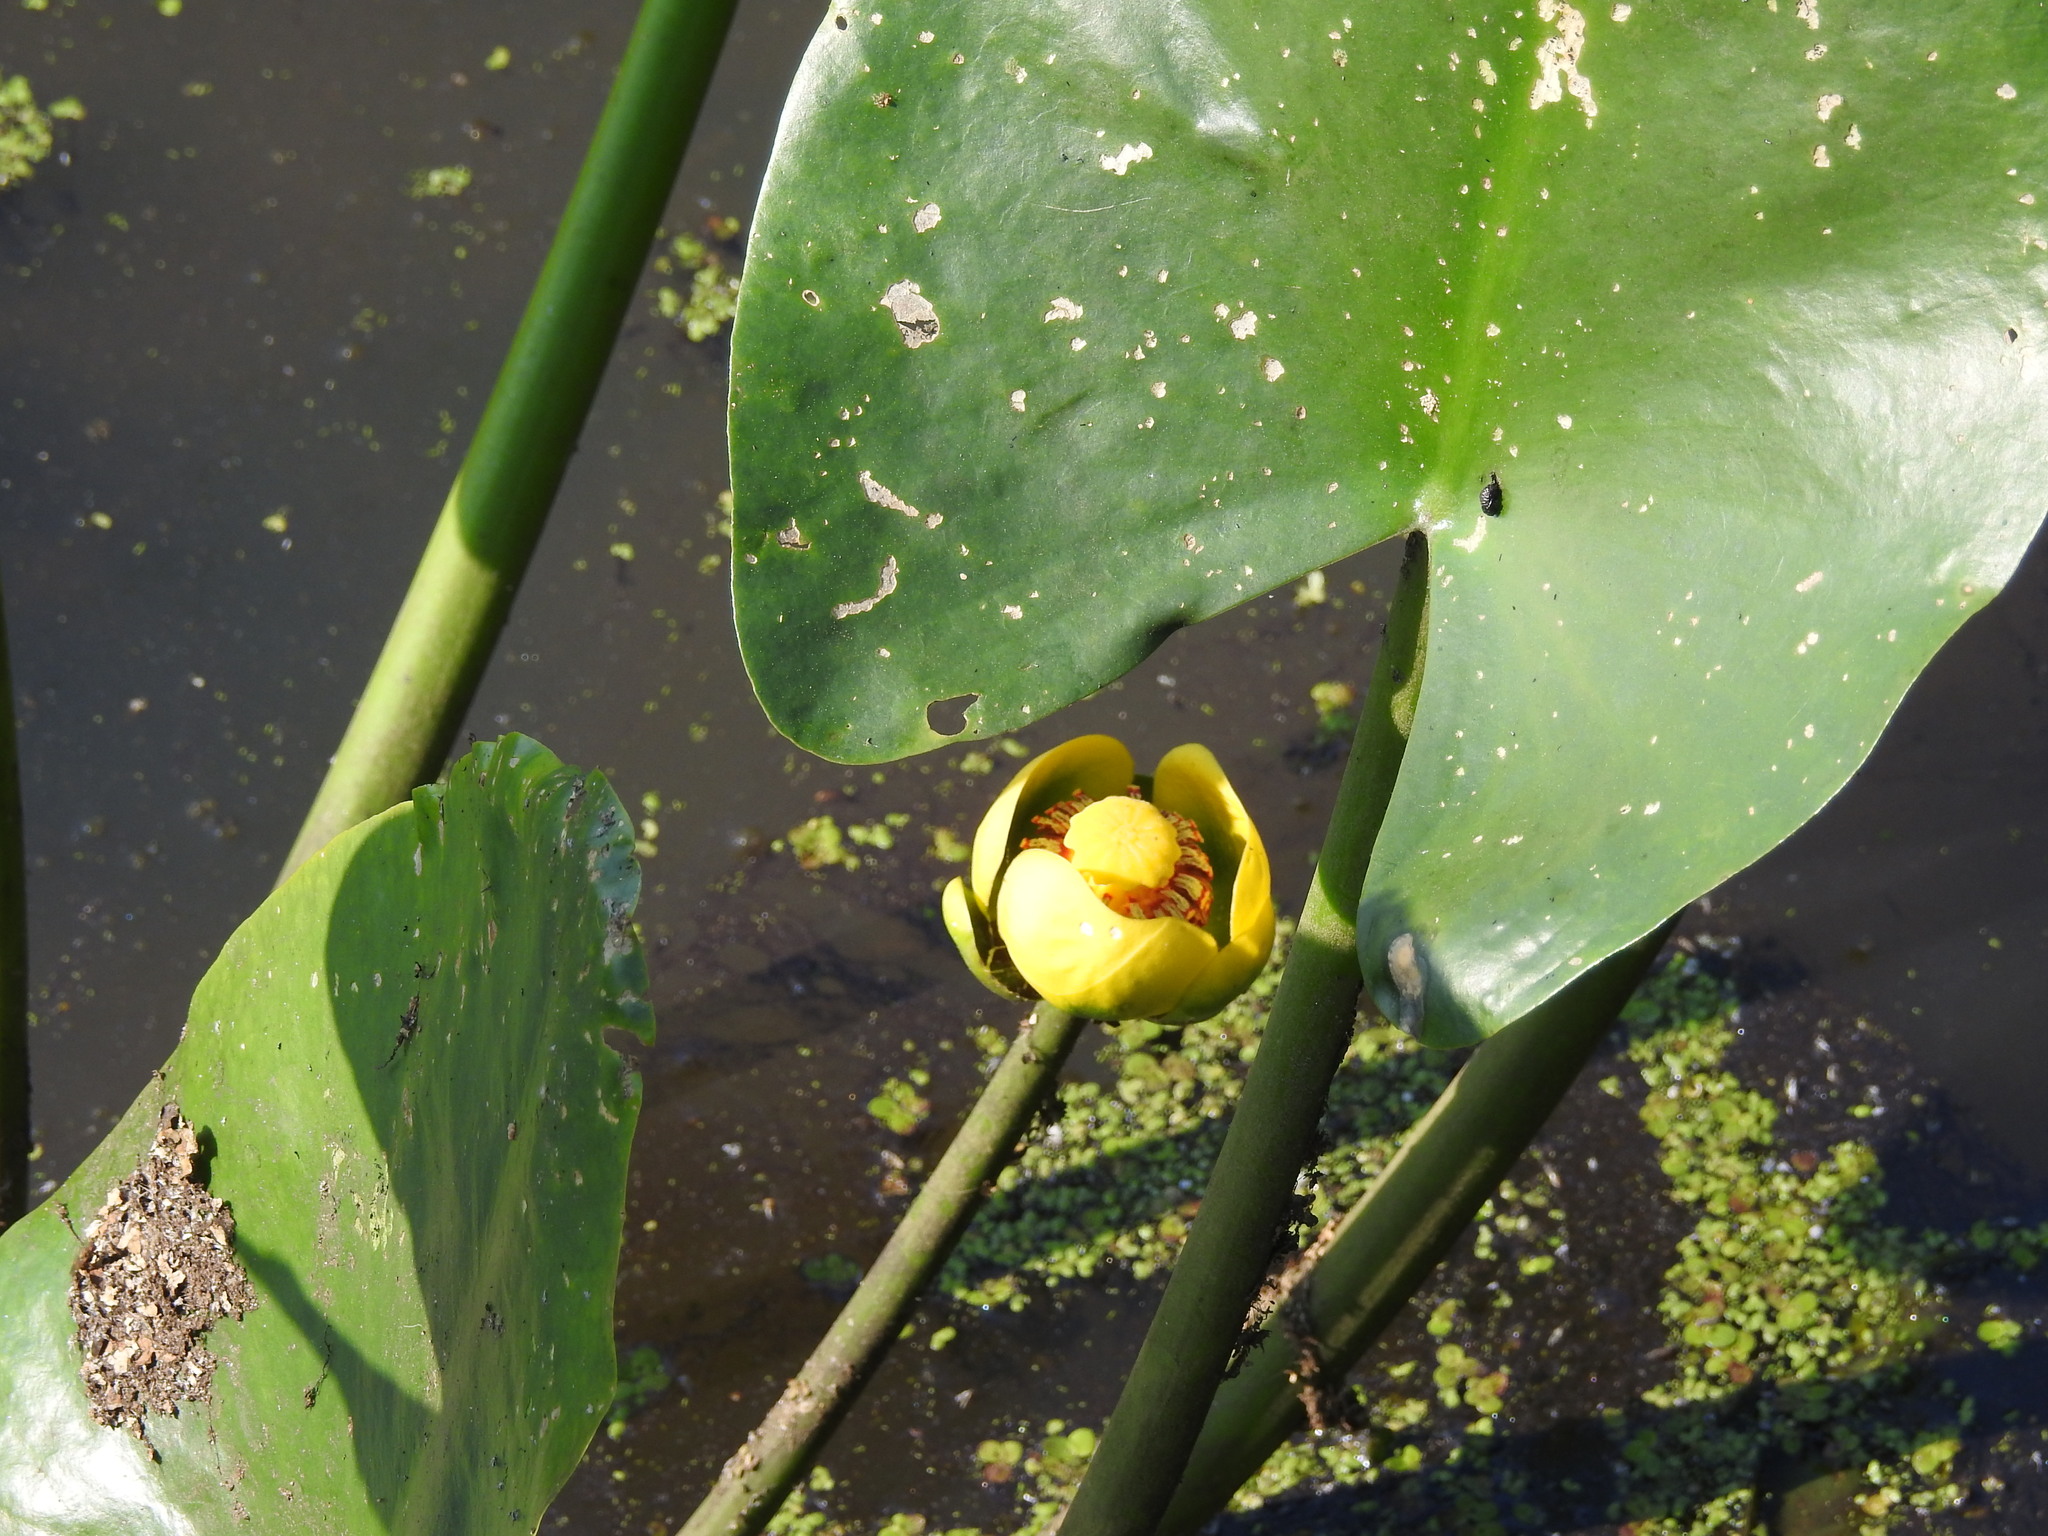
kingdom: Plantae
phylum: Tracheophyta
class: Magnoliopsida
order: Nymphaeales
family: Nymphaeaceae
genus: Nuphar
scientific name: Nuphar advena
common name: Spatter-dock
